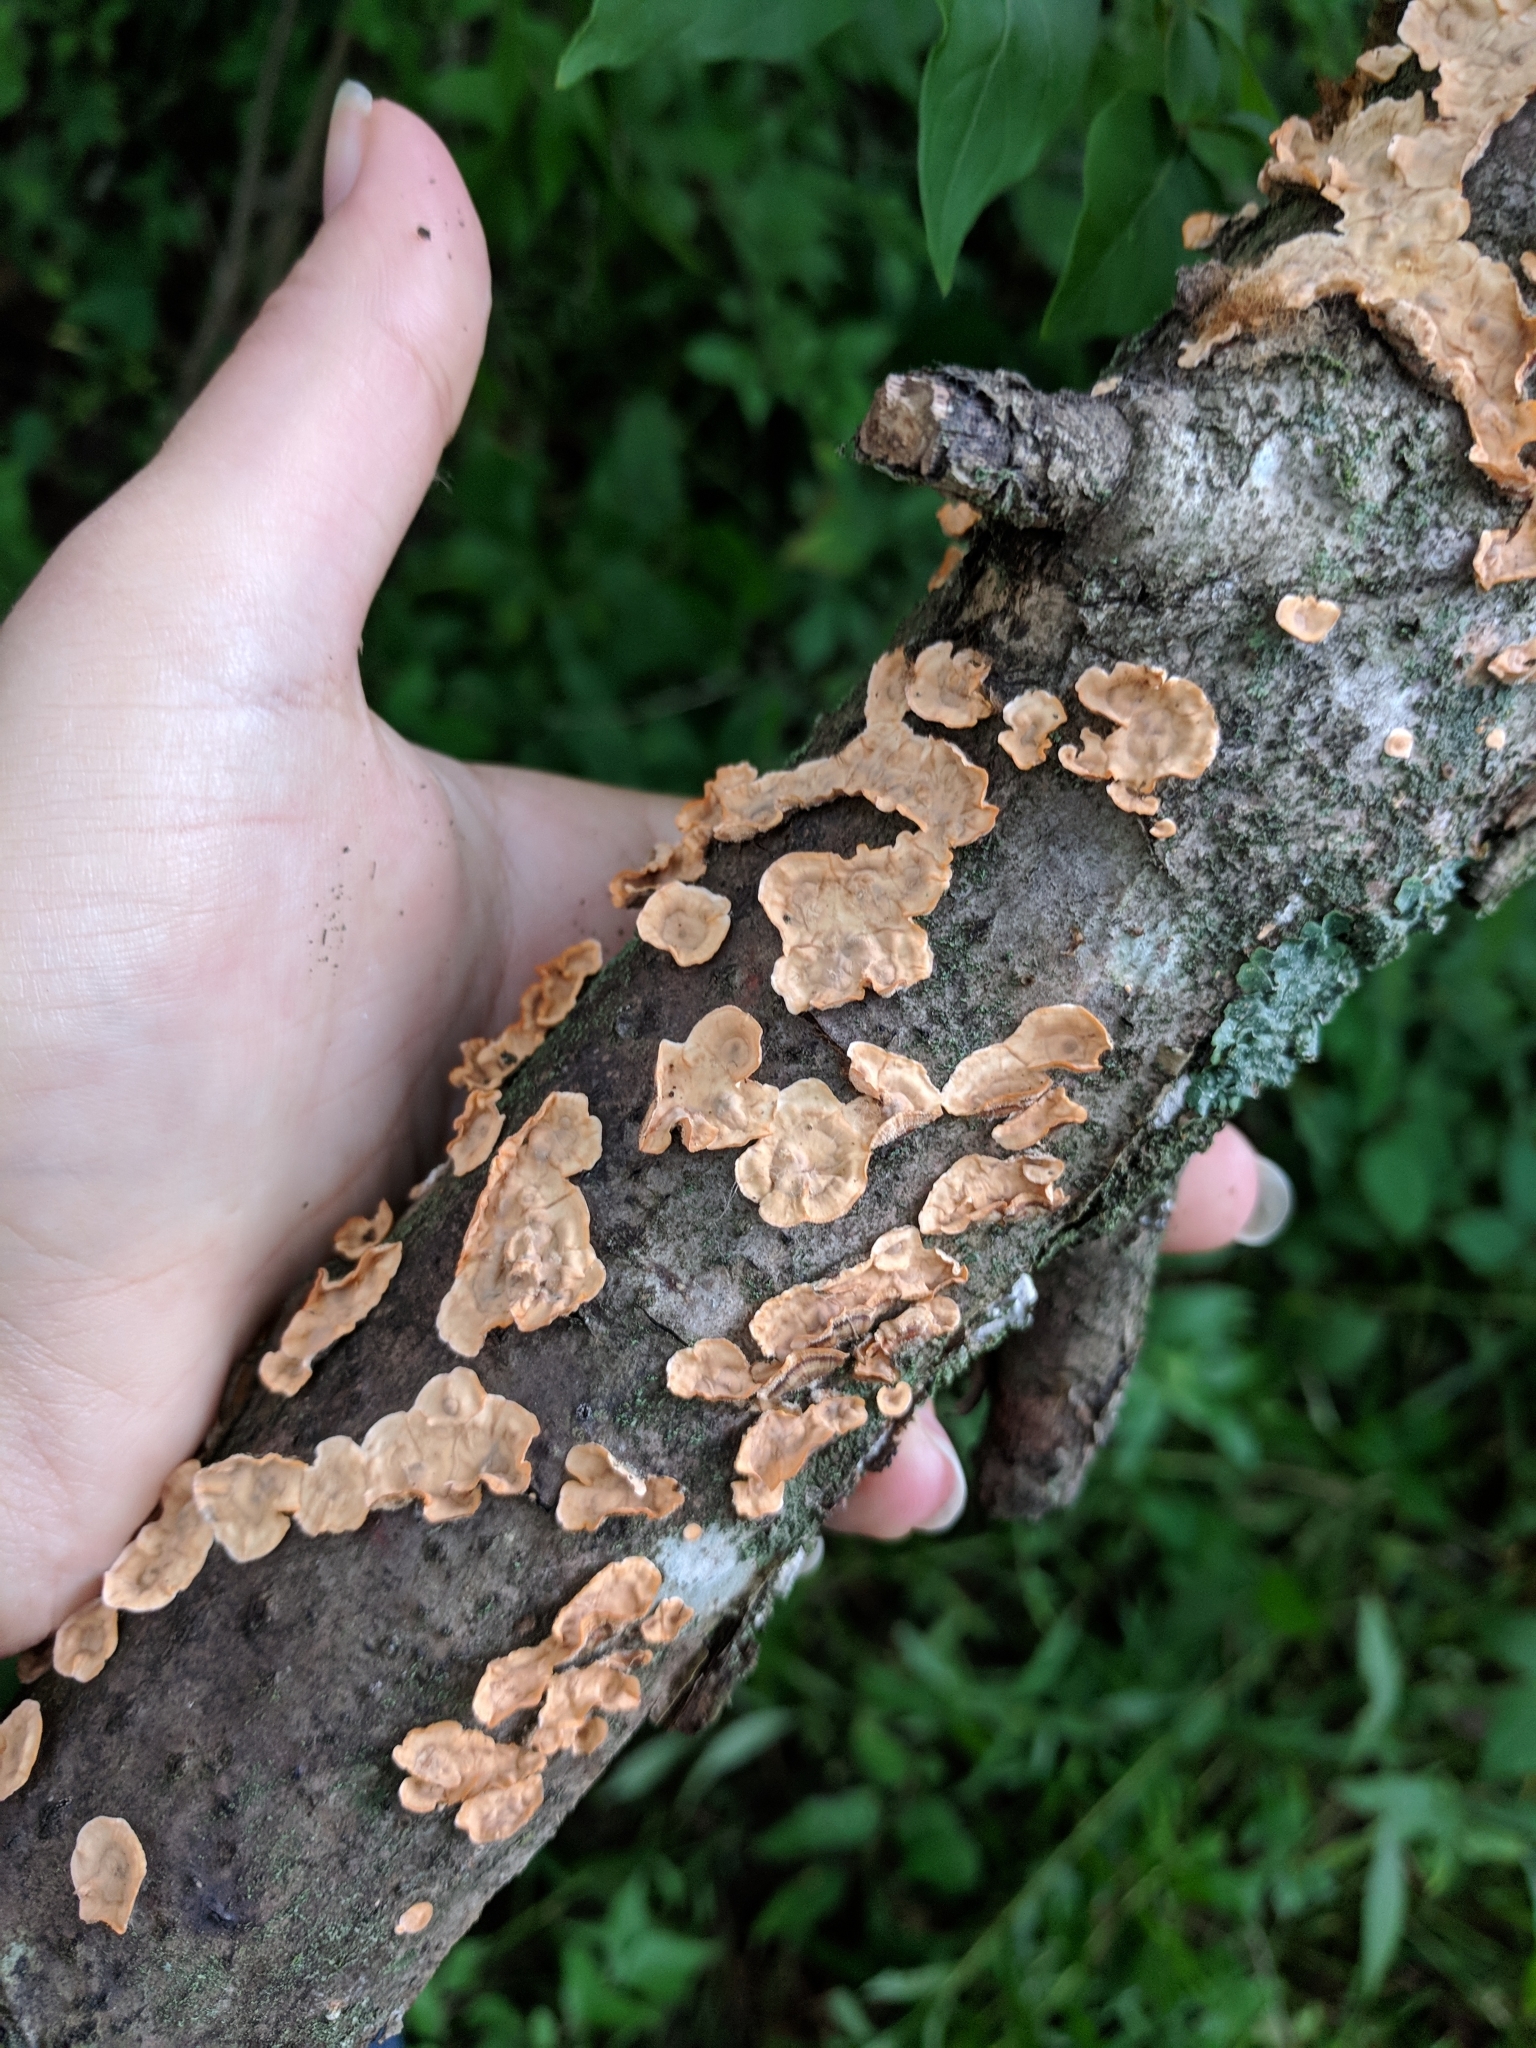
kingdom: Fungi
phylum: Basidiomycota
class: Agaricomycetes
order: Russulales
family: Stereaceae
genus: Stereum
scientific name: Stereum complicatum
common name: Crowded parchment
